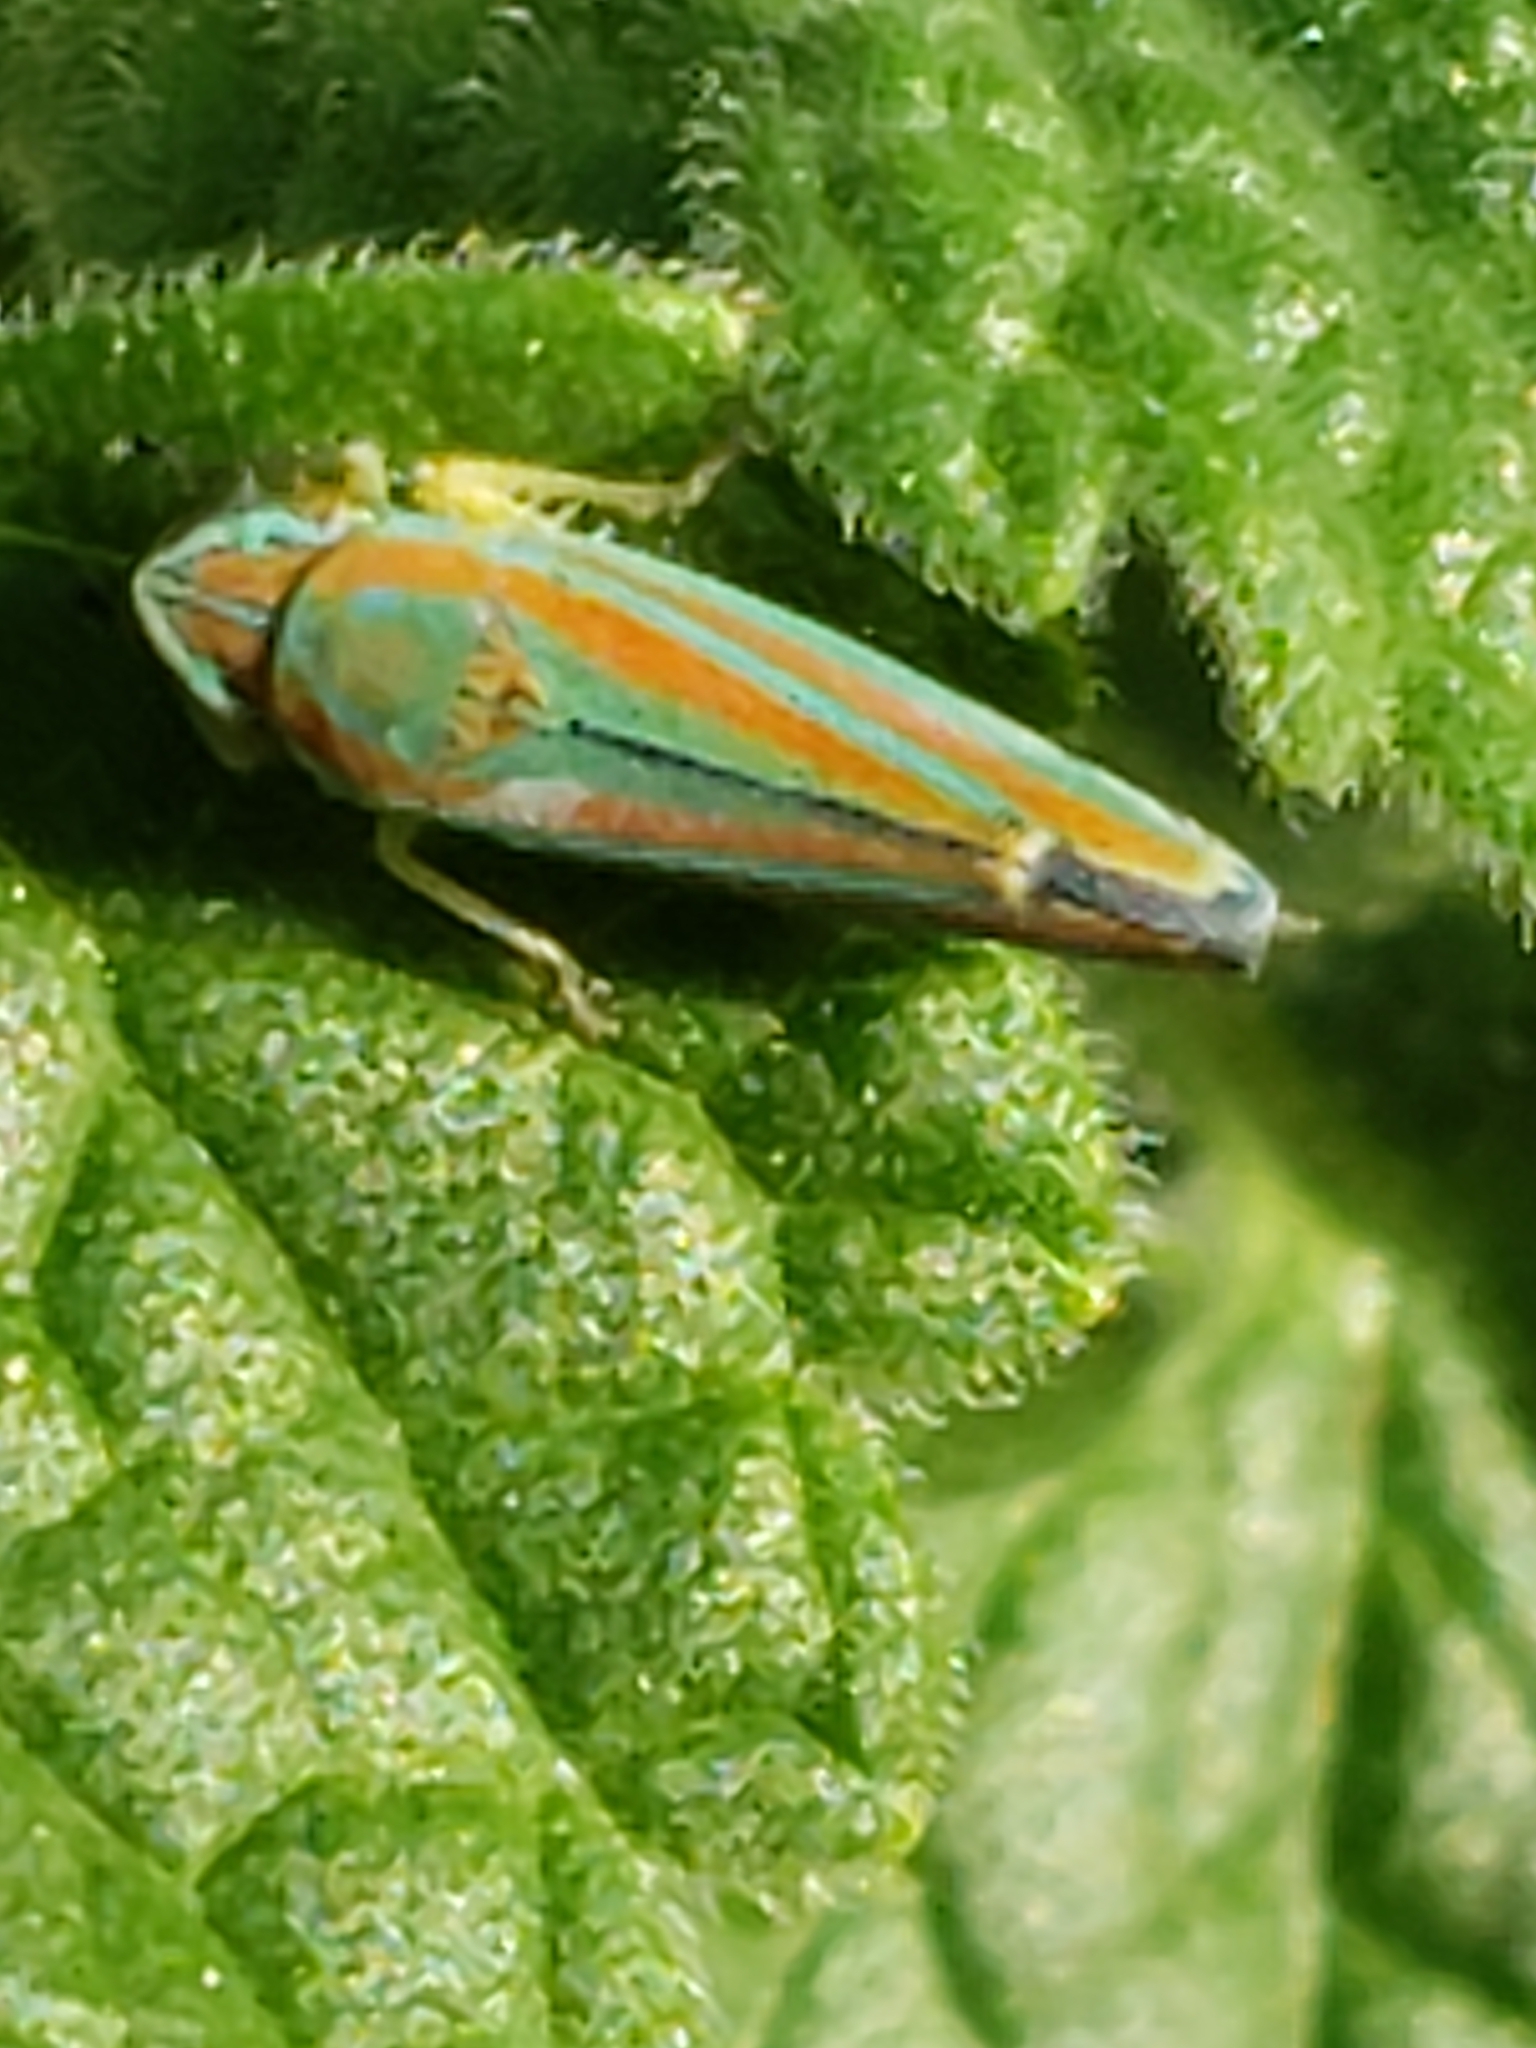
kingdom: Animalia
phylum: Arthropoda
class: Insecta
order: Hemiptera
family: Cicadellidae
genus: Graphocephala
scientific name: Graphocephala versuta
